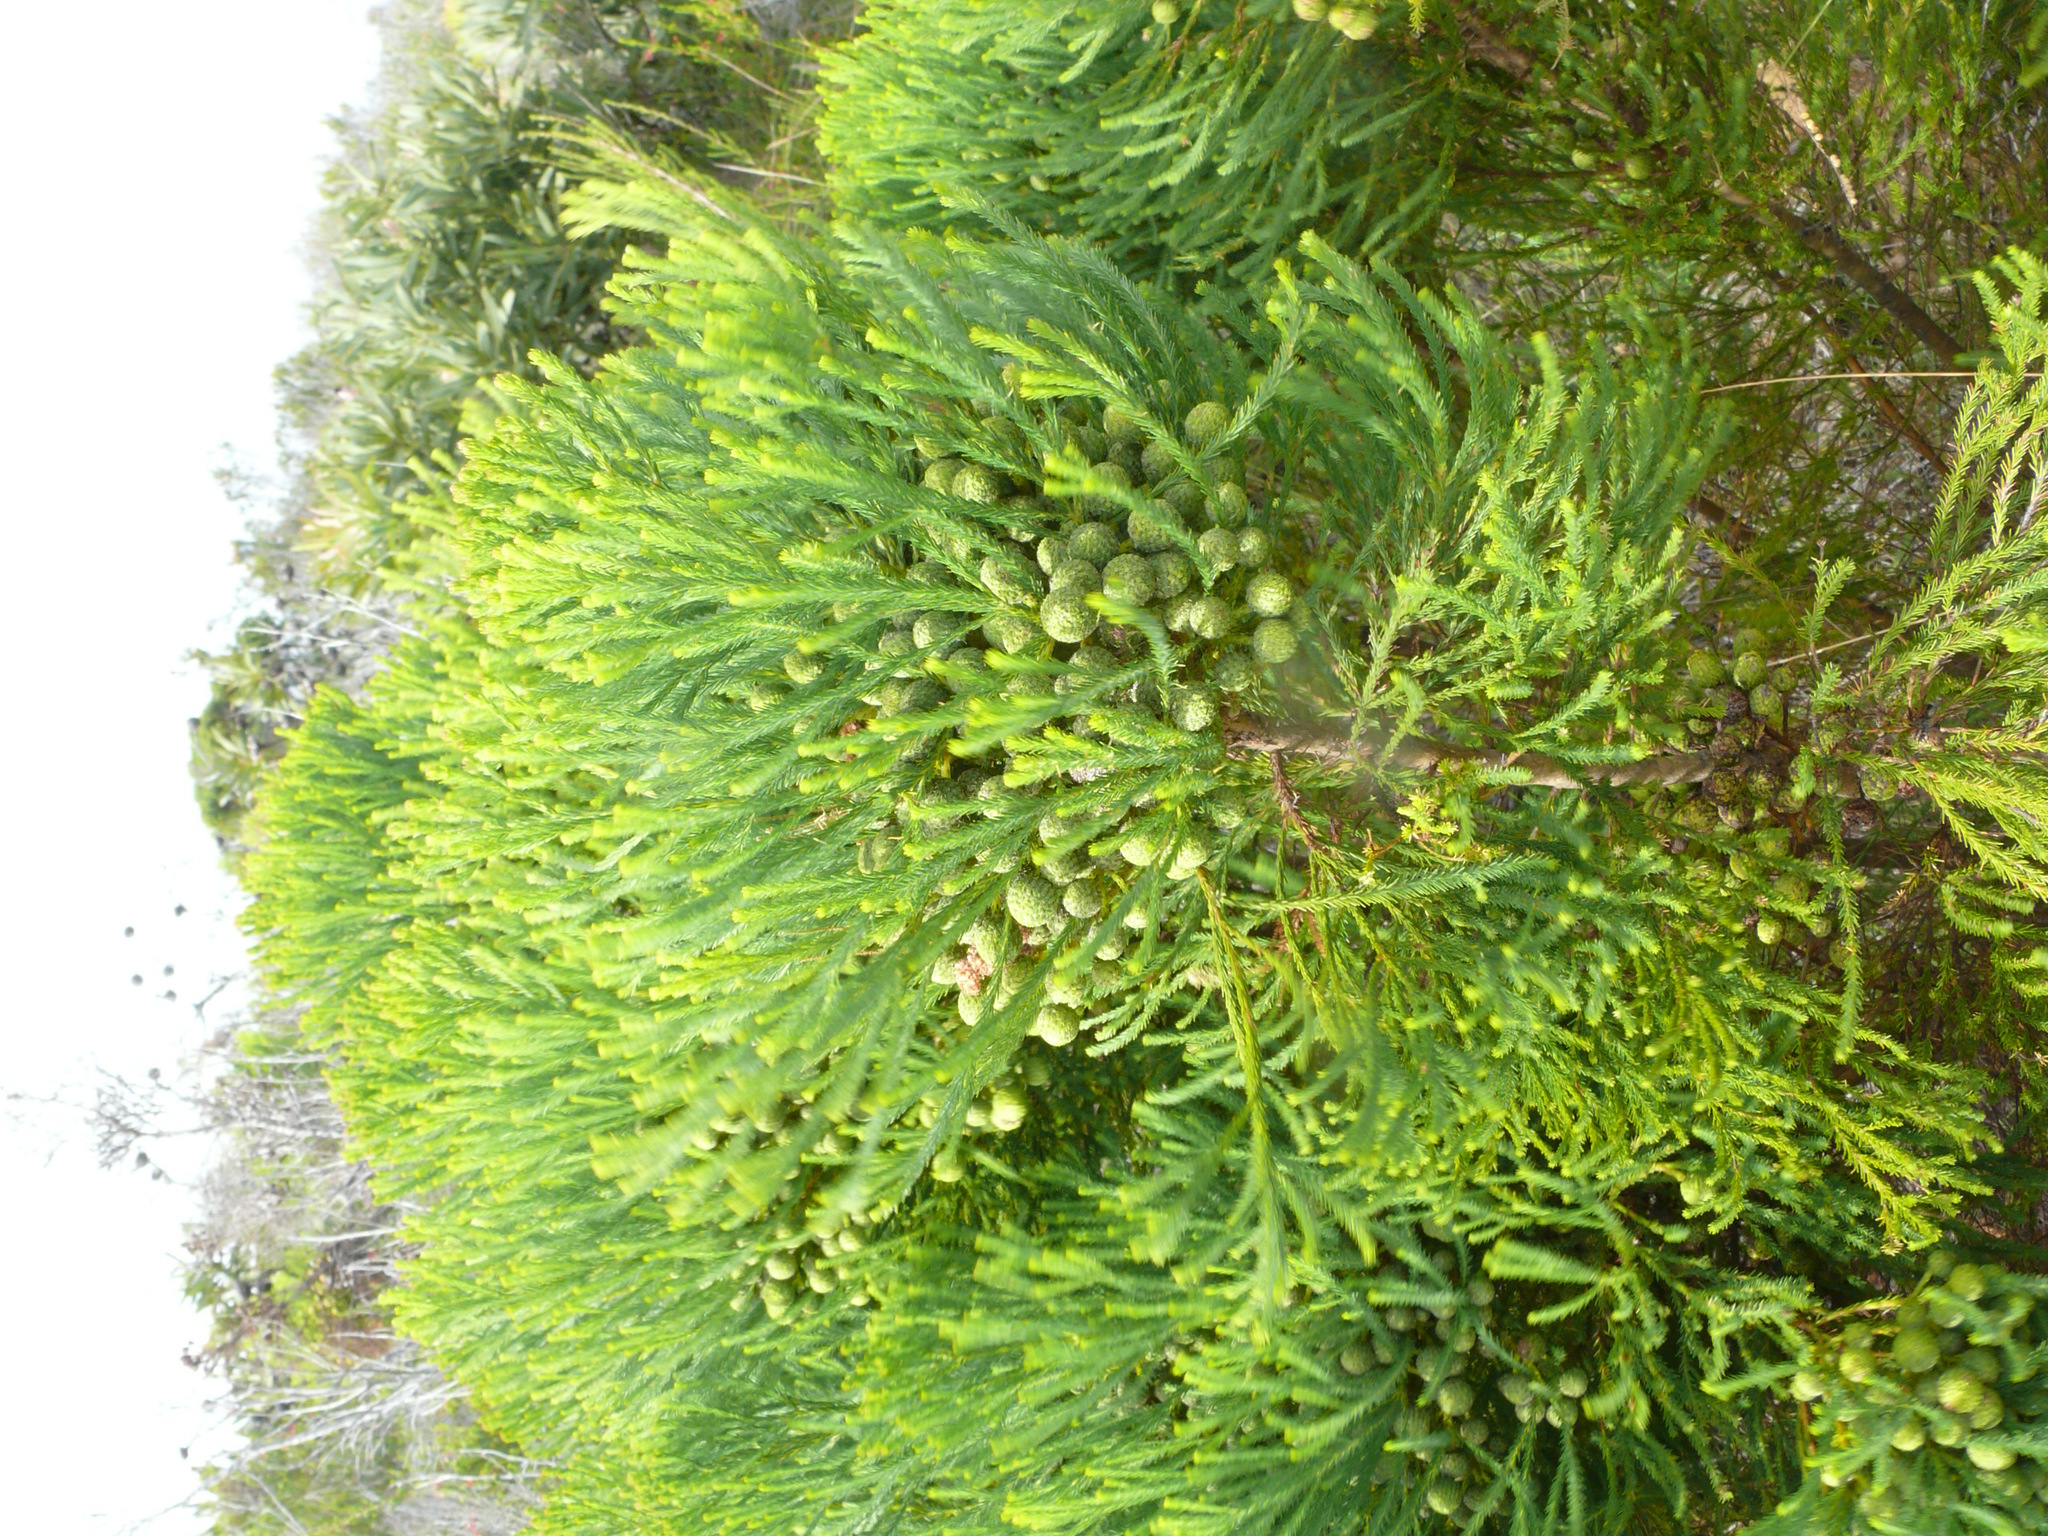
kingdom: Plantae
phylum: Tracheophyta
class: Magnoliopsida
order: Bruniales
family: Bruniaceae
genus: Berzelia
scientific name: Berzelia intermedia
